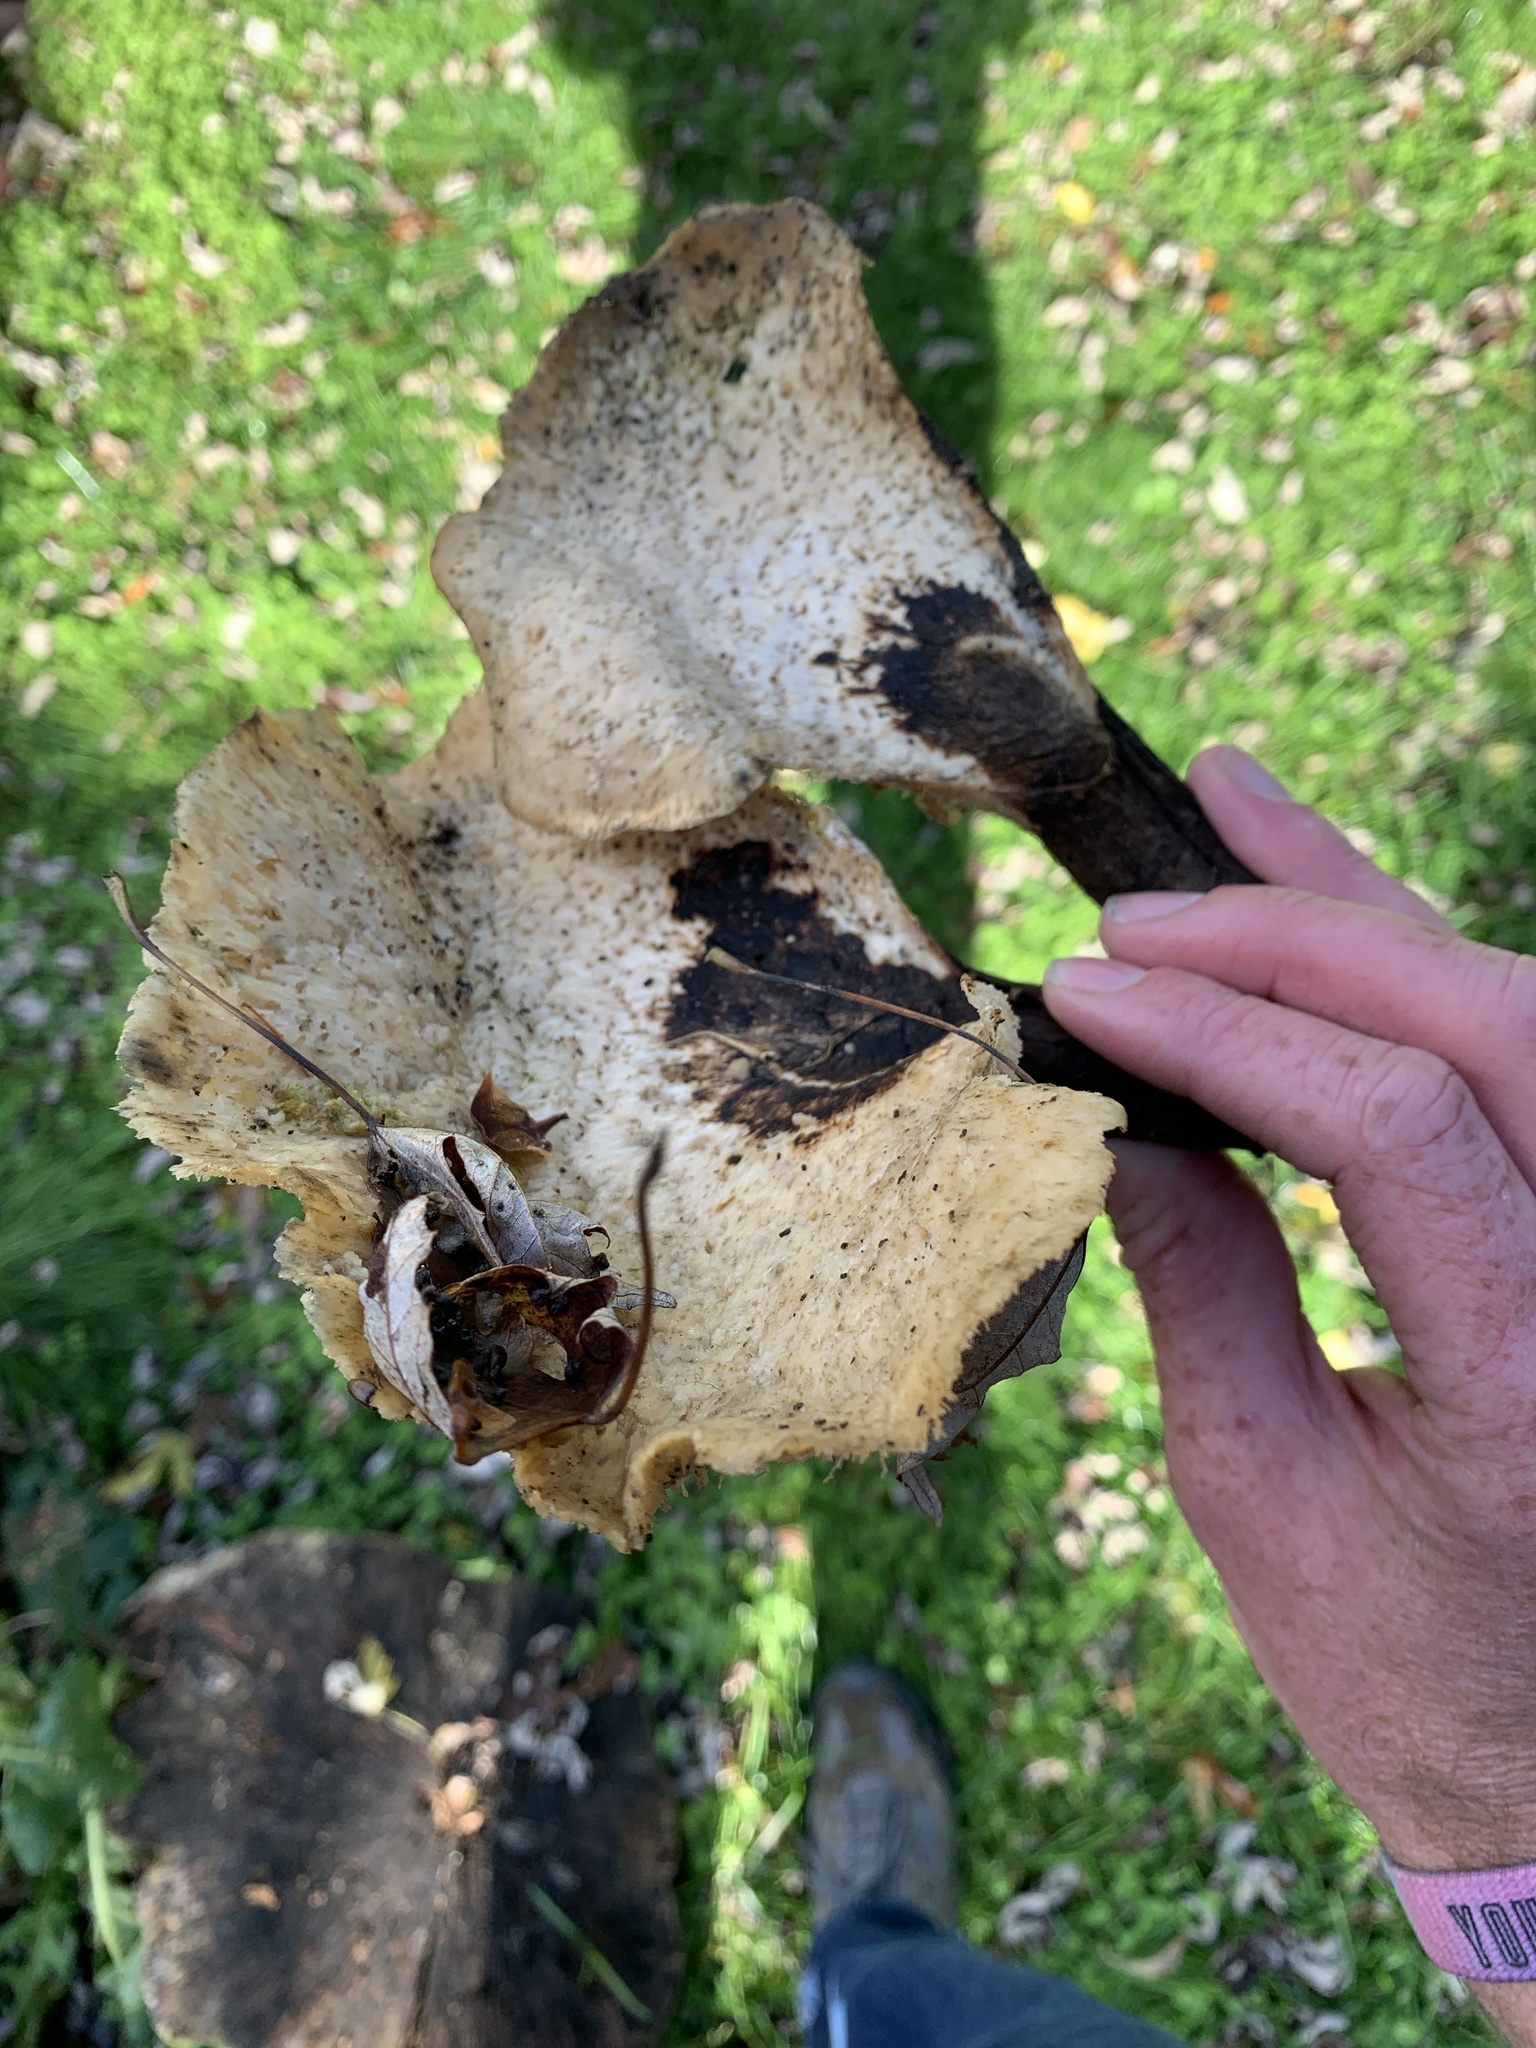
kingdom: Fungi
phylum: Basidiomycota
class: Agaricomycetes
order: Polyporales
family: Polyporaceae
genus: Cerioporus
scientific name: Cerioporus squamosus
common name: Dryad's saddle
